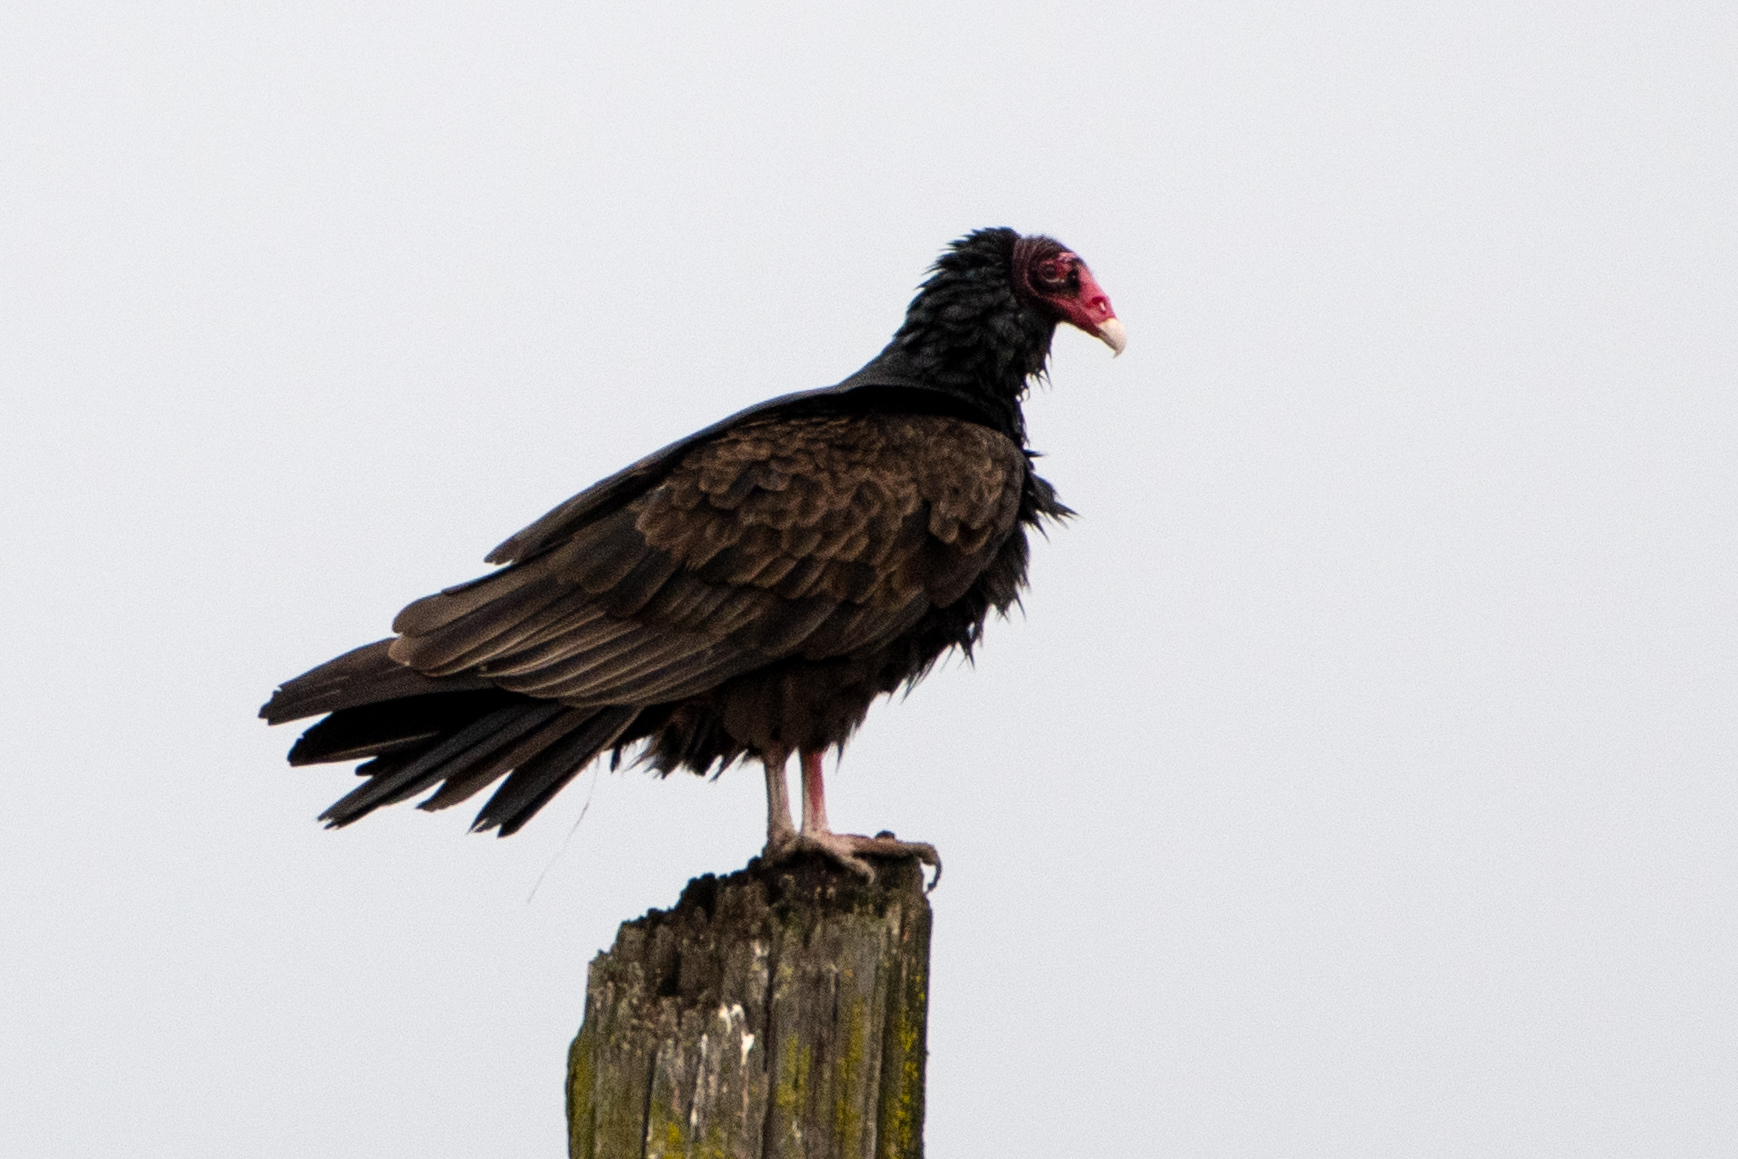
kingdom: Animalia
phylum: Chordata
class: Aves
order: Accipitriformes
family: Cathartidae
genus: Cathartes
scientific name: Cathartes aura
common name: Turkey vulture
